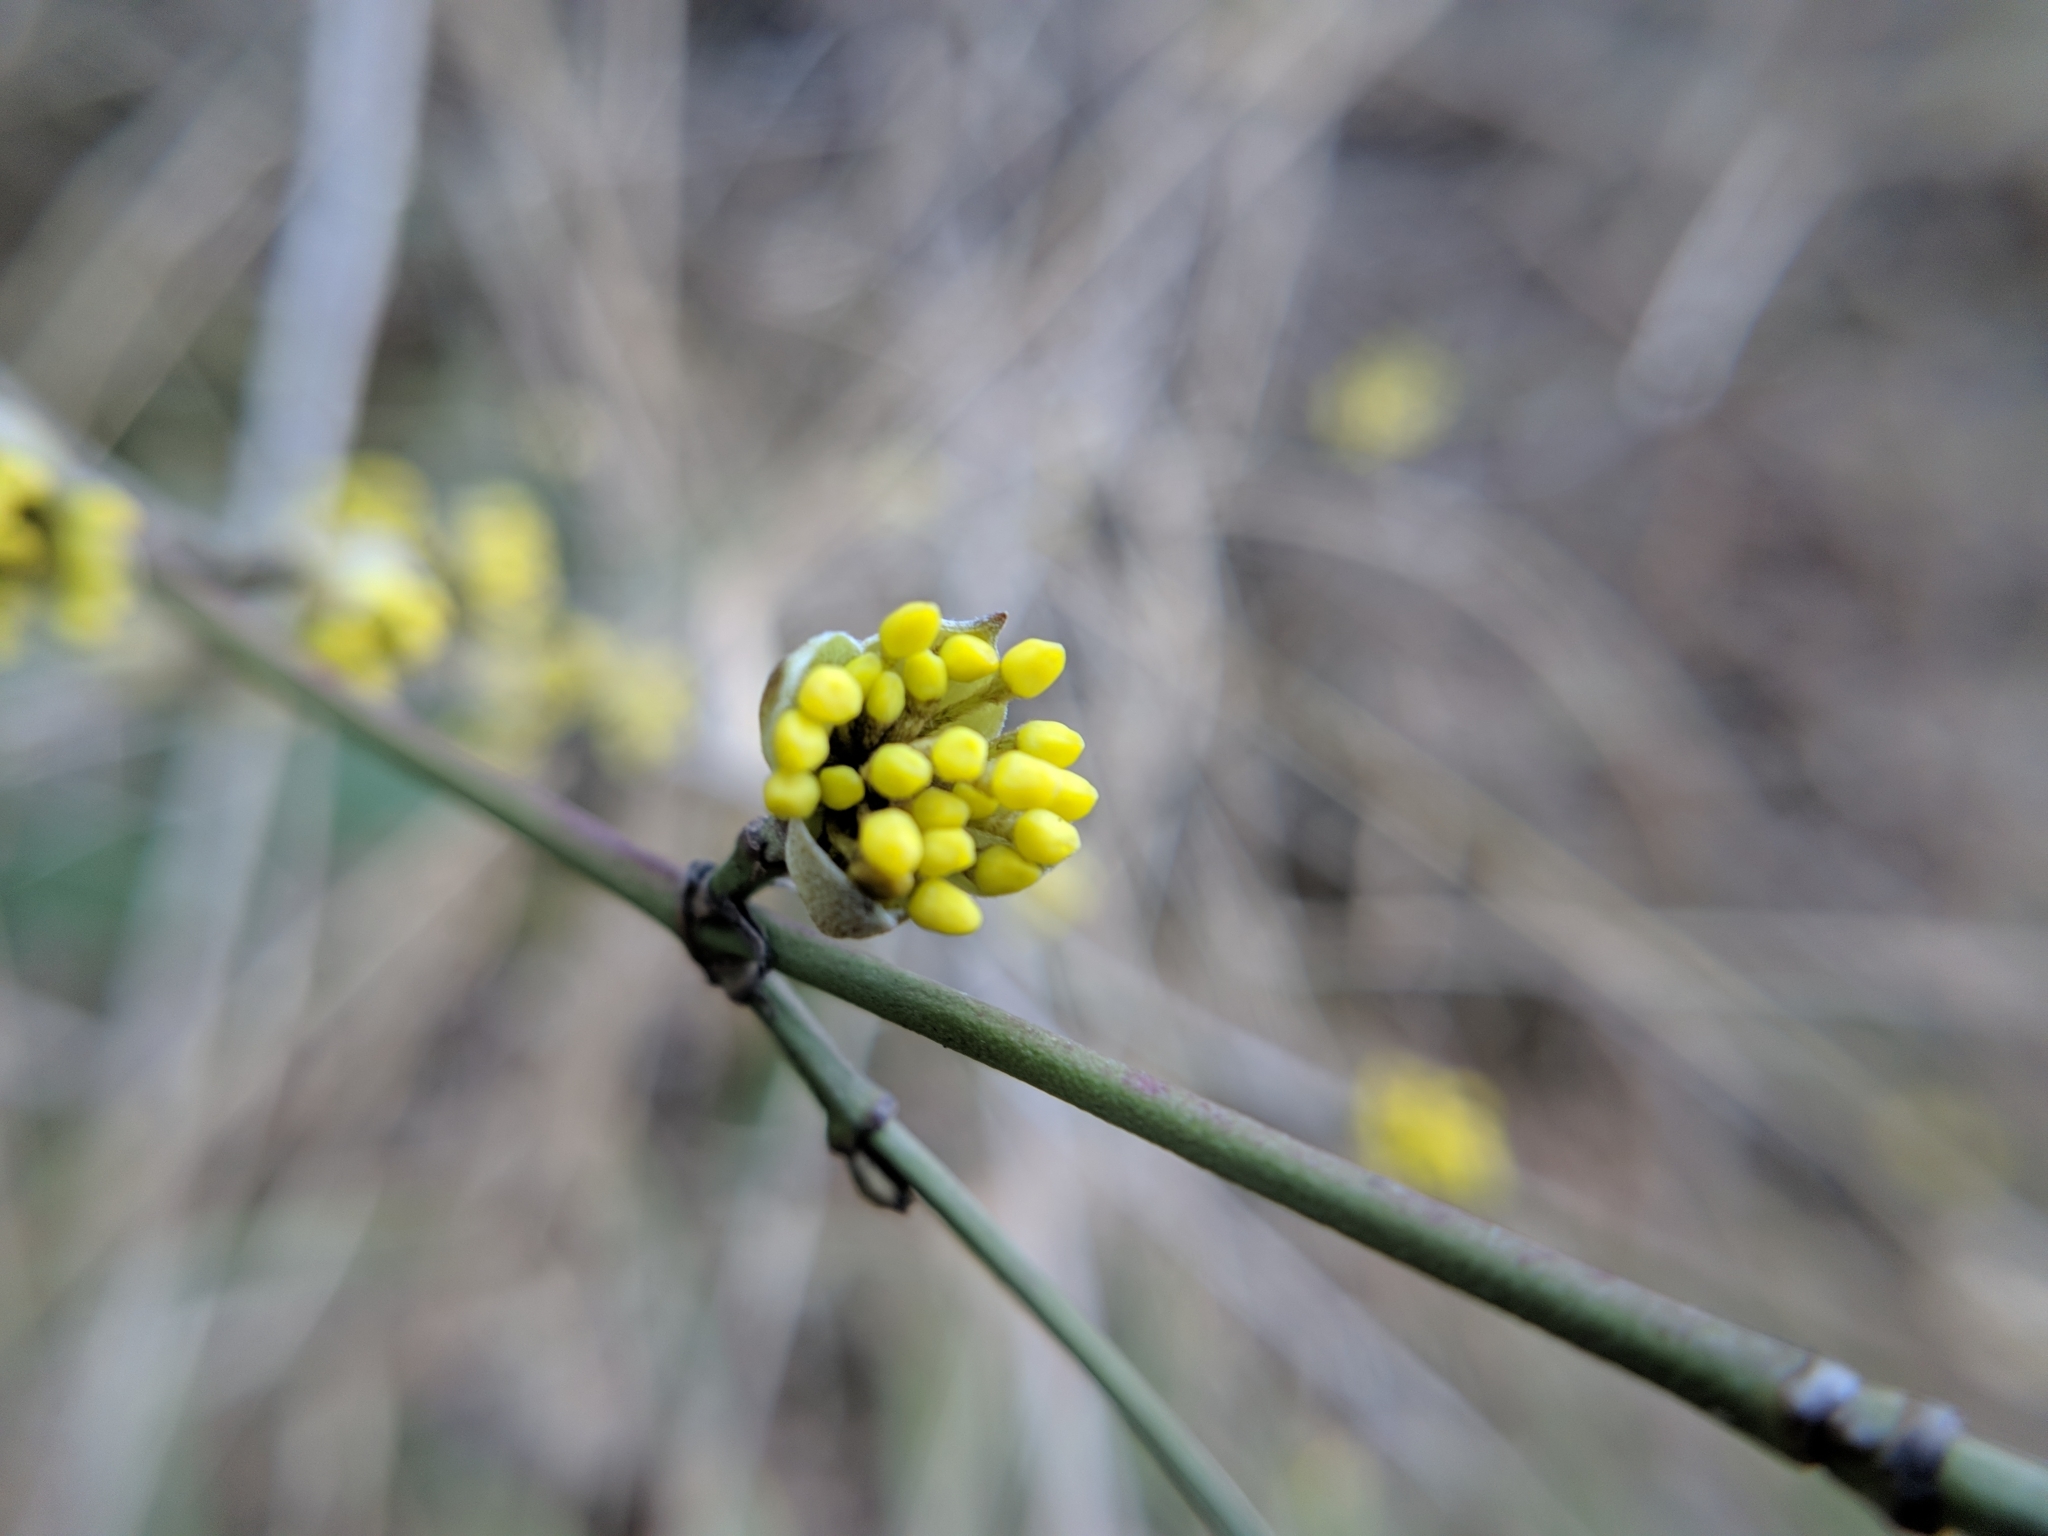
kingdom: Plantae
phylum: Tracheophyta
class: Magnoliopsida
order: Cornales
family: Cornaceae
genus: Cornus
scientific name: Cornus mas
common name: Cornelian-cherry
